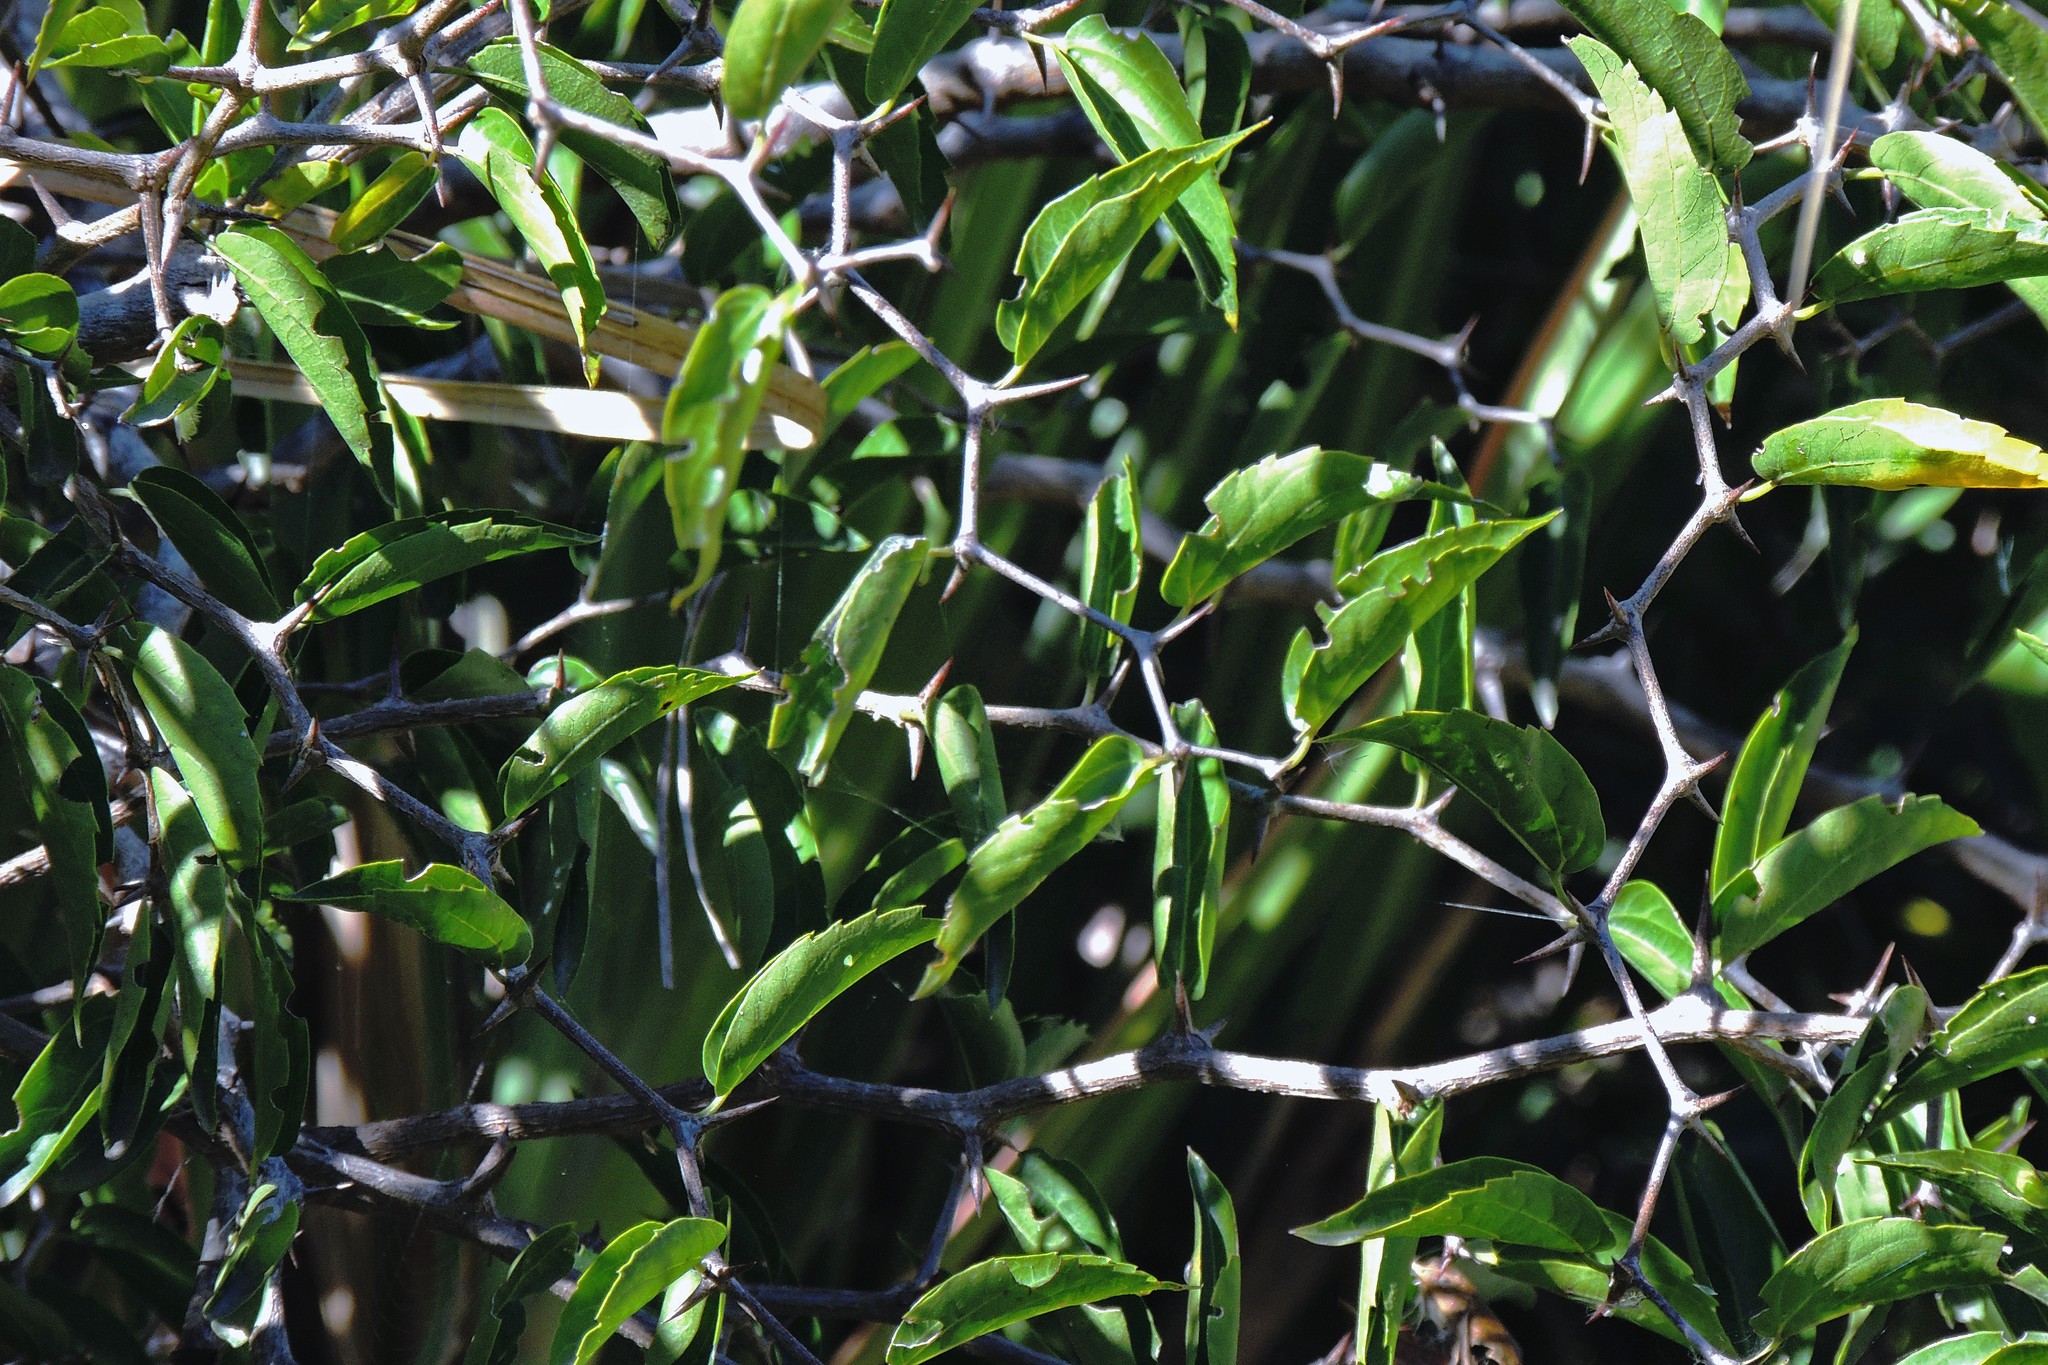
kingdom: Plantae
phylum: Tracheophyta
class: Magnoliopsida
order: Rosales
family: Cannabaceae
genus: Celtis
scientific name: Celtis tala
